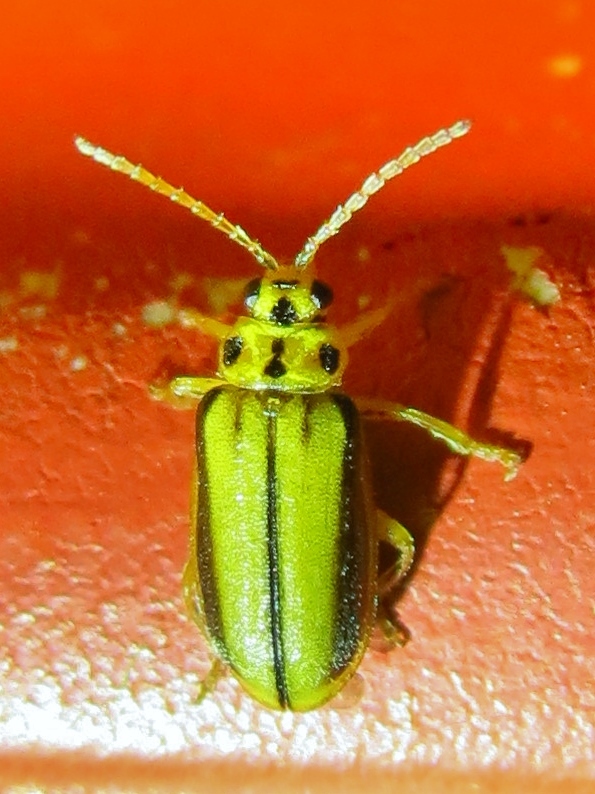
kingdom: Animalia
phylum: Arthropoda
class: Insecta
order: Coleoptera
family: Chrysomelidae
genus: Xanthogaleruca
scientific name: Xanthogaleruca luteola
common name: Elm leaf beetle
